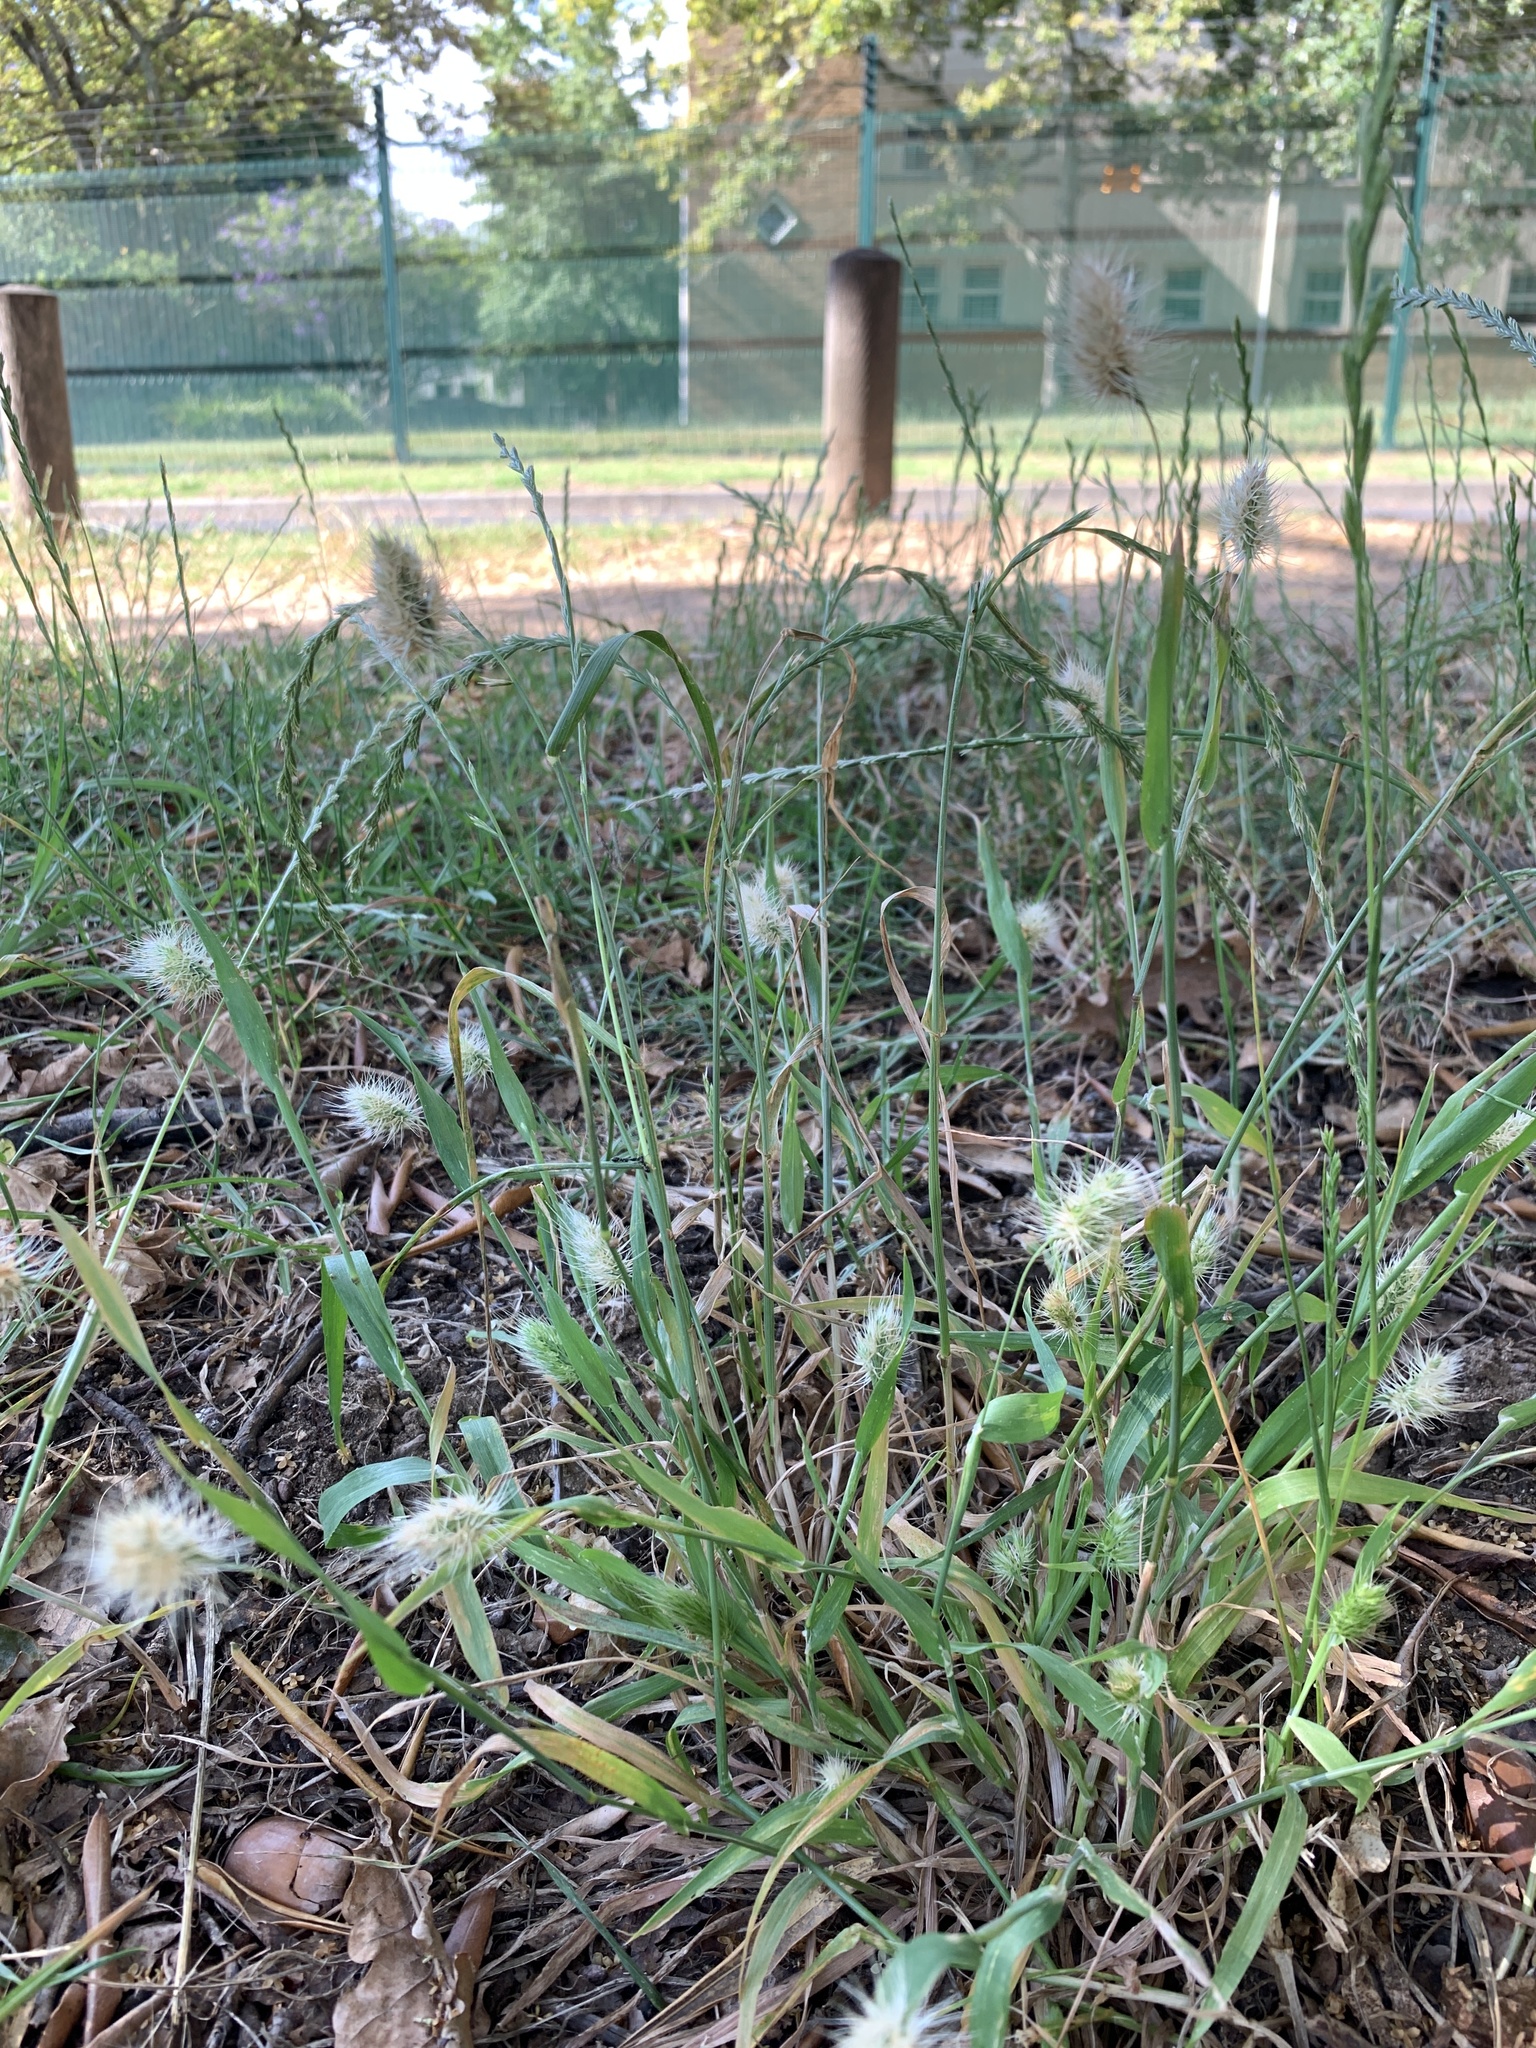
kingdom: Plantae
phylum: Tracheophyta
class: Liliopsida
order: Poales
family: Poaceae
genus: Cynosurus
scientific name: Cynosurus echinatus
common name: Rough dog's-tail
